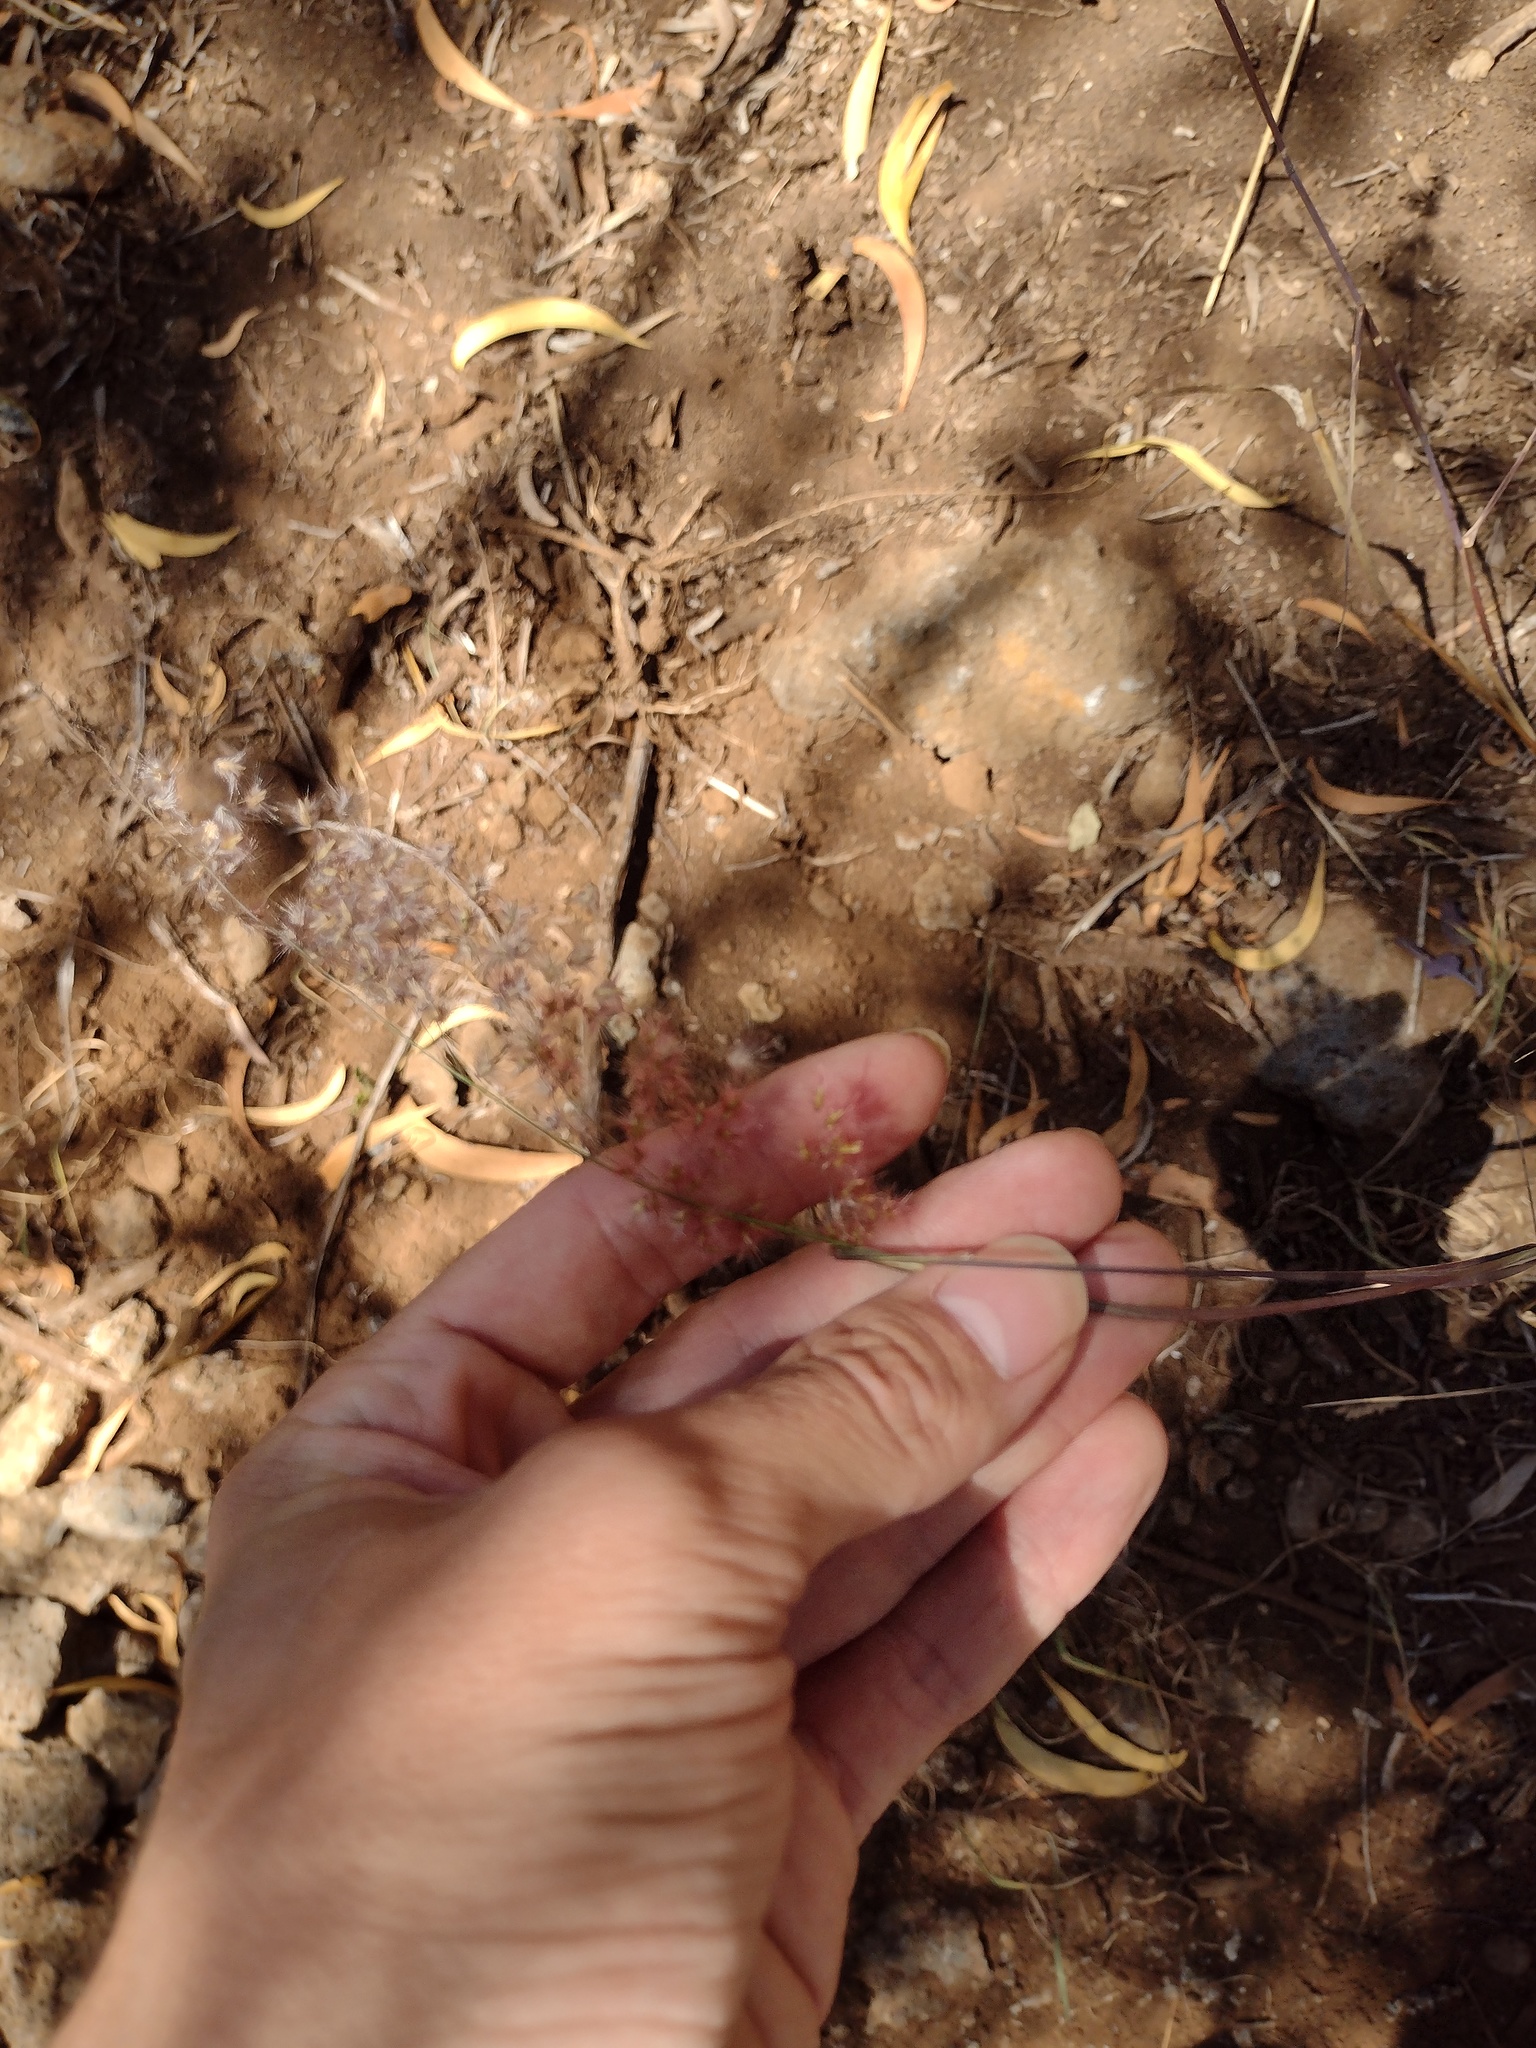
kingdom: Plantae
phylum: Tracheophyta
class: Liliopsida
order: Poales
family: Poaceae
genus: Melinis
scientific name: Melinis repens
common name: Rose natal grass
